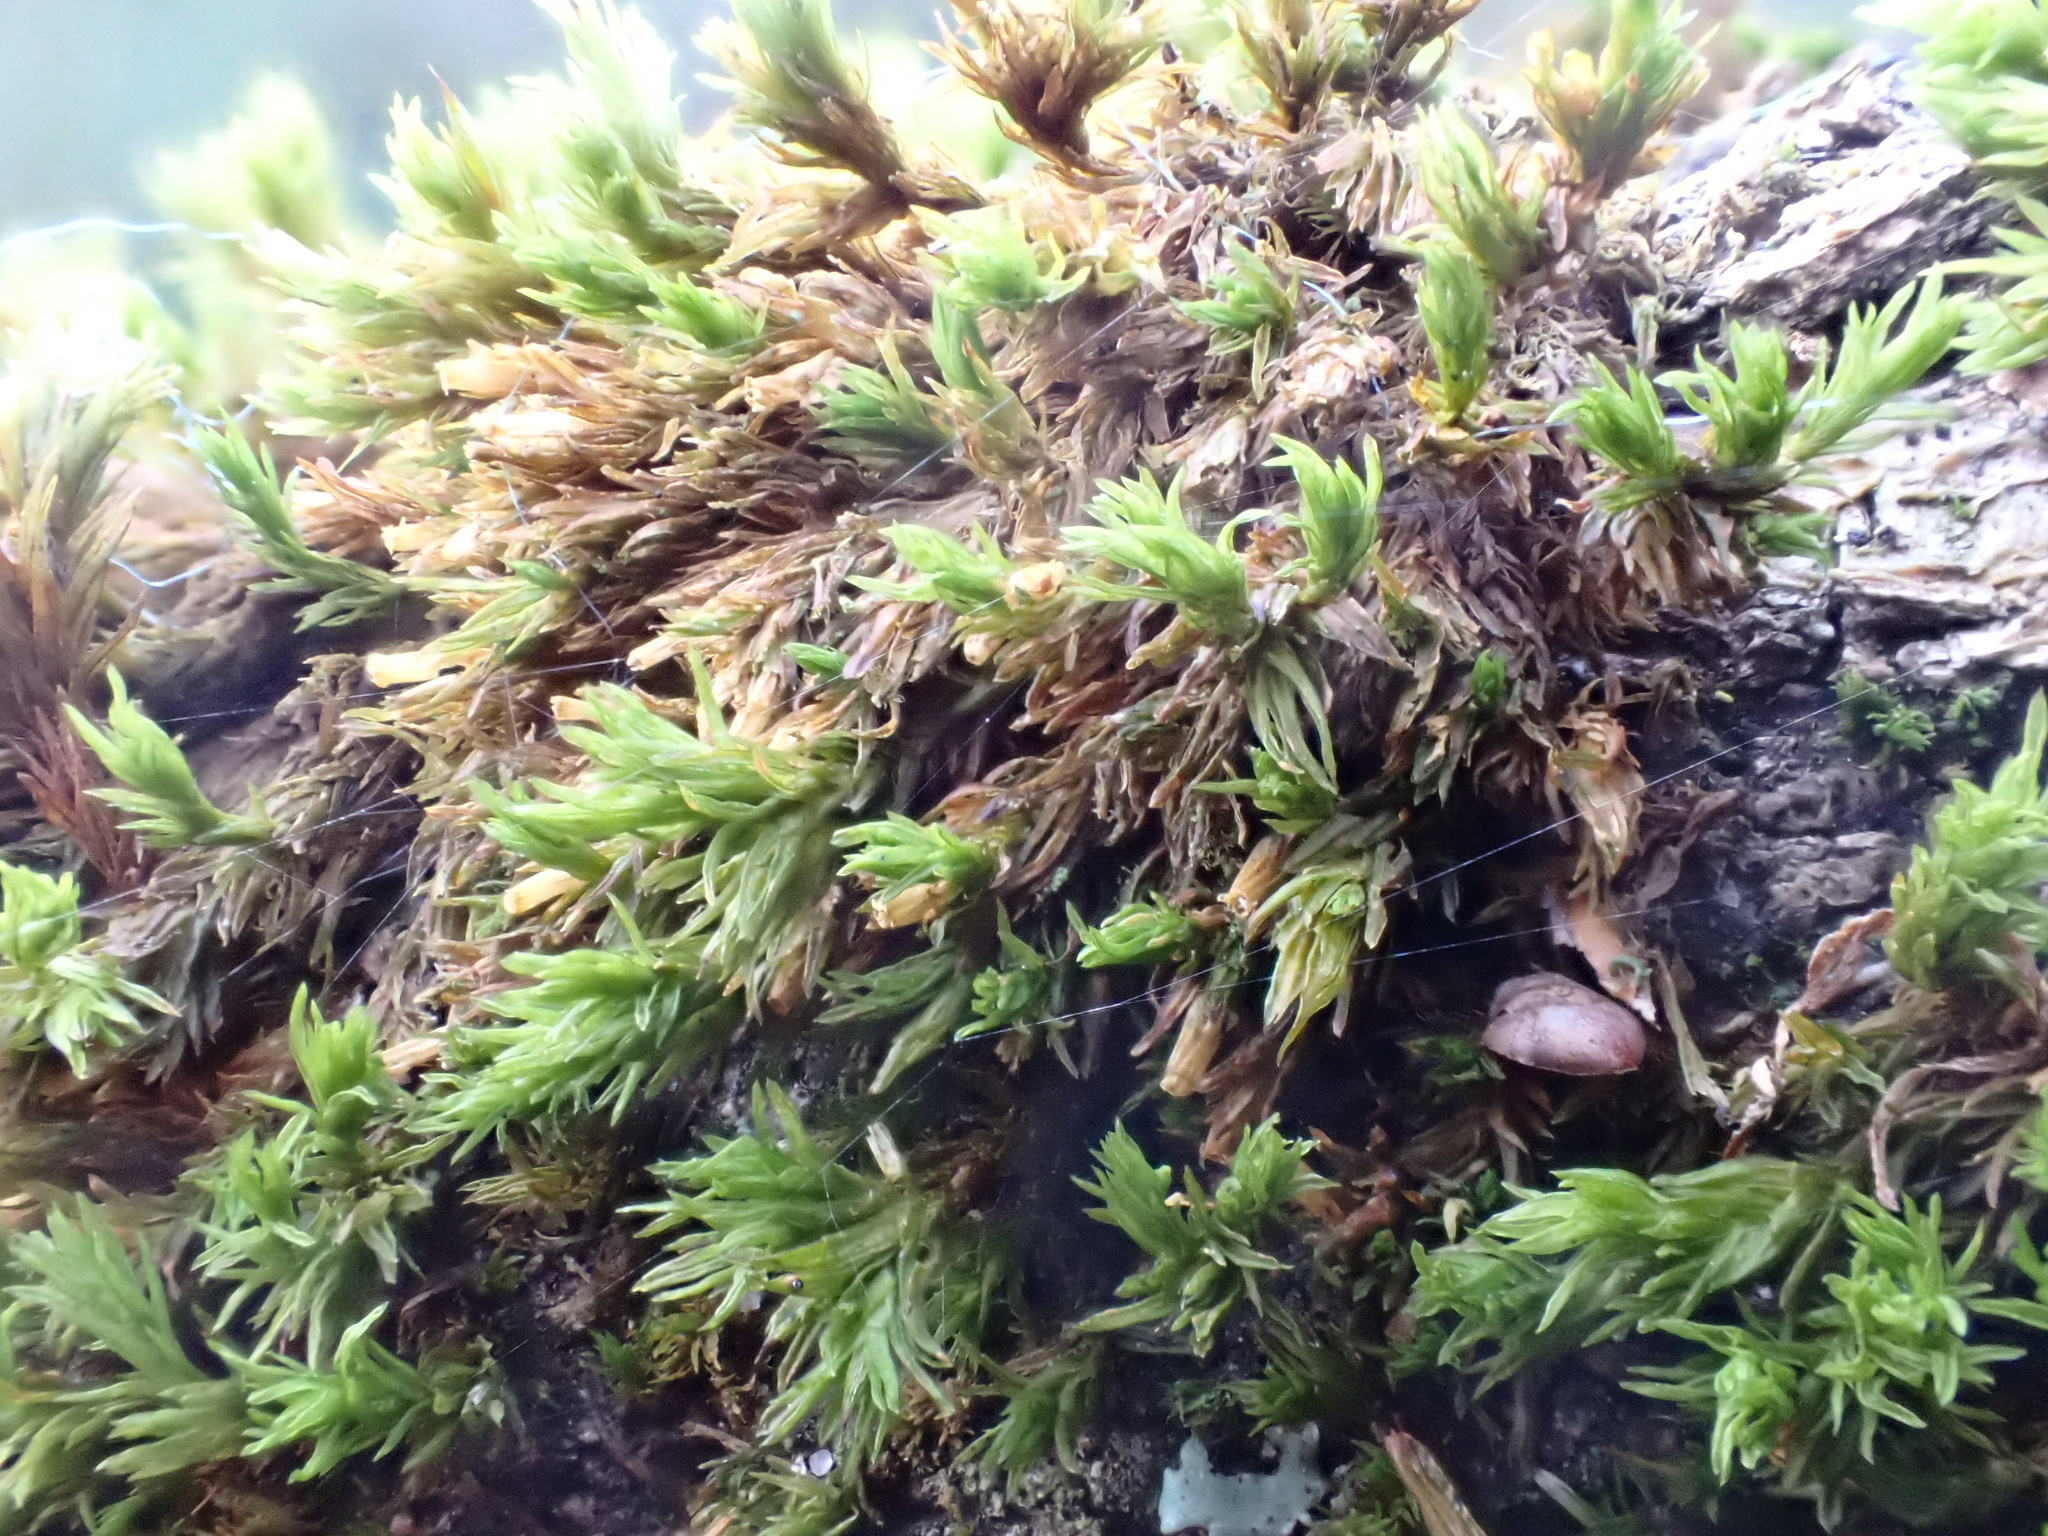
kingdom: Plantae
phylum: Bryophyta
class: Bryopsida
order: Orthotrichales
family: Orthotrichaceae
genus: Orthotrichum
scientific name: Orthotrichum pulchellum
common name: Elegant bristle-moss
